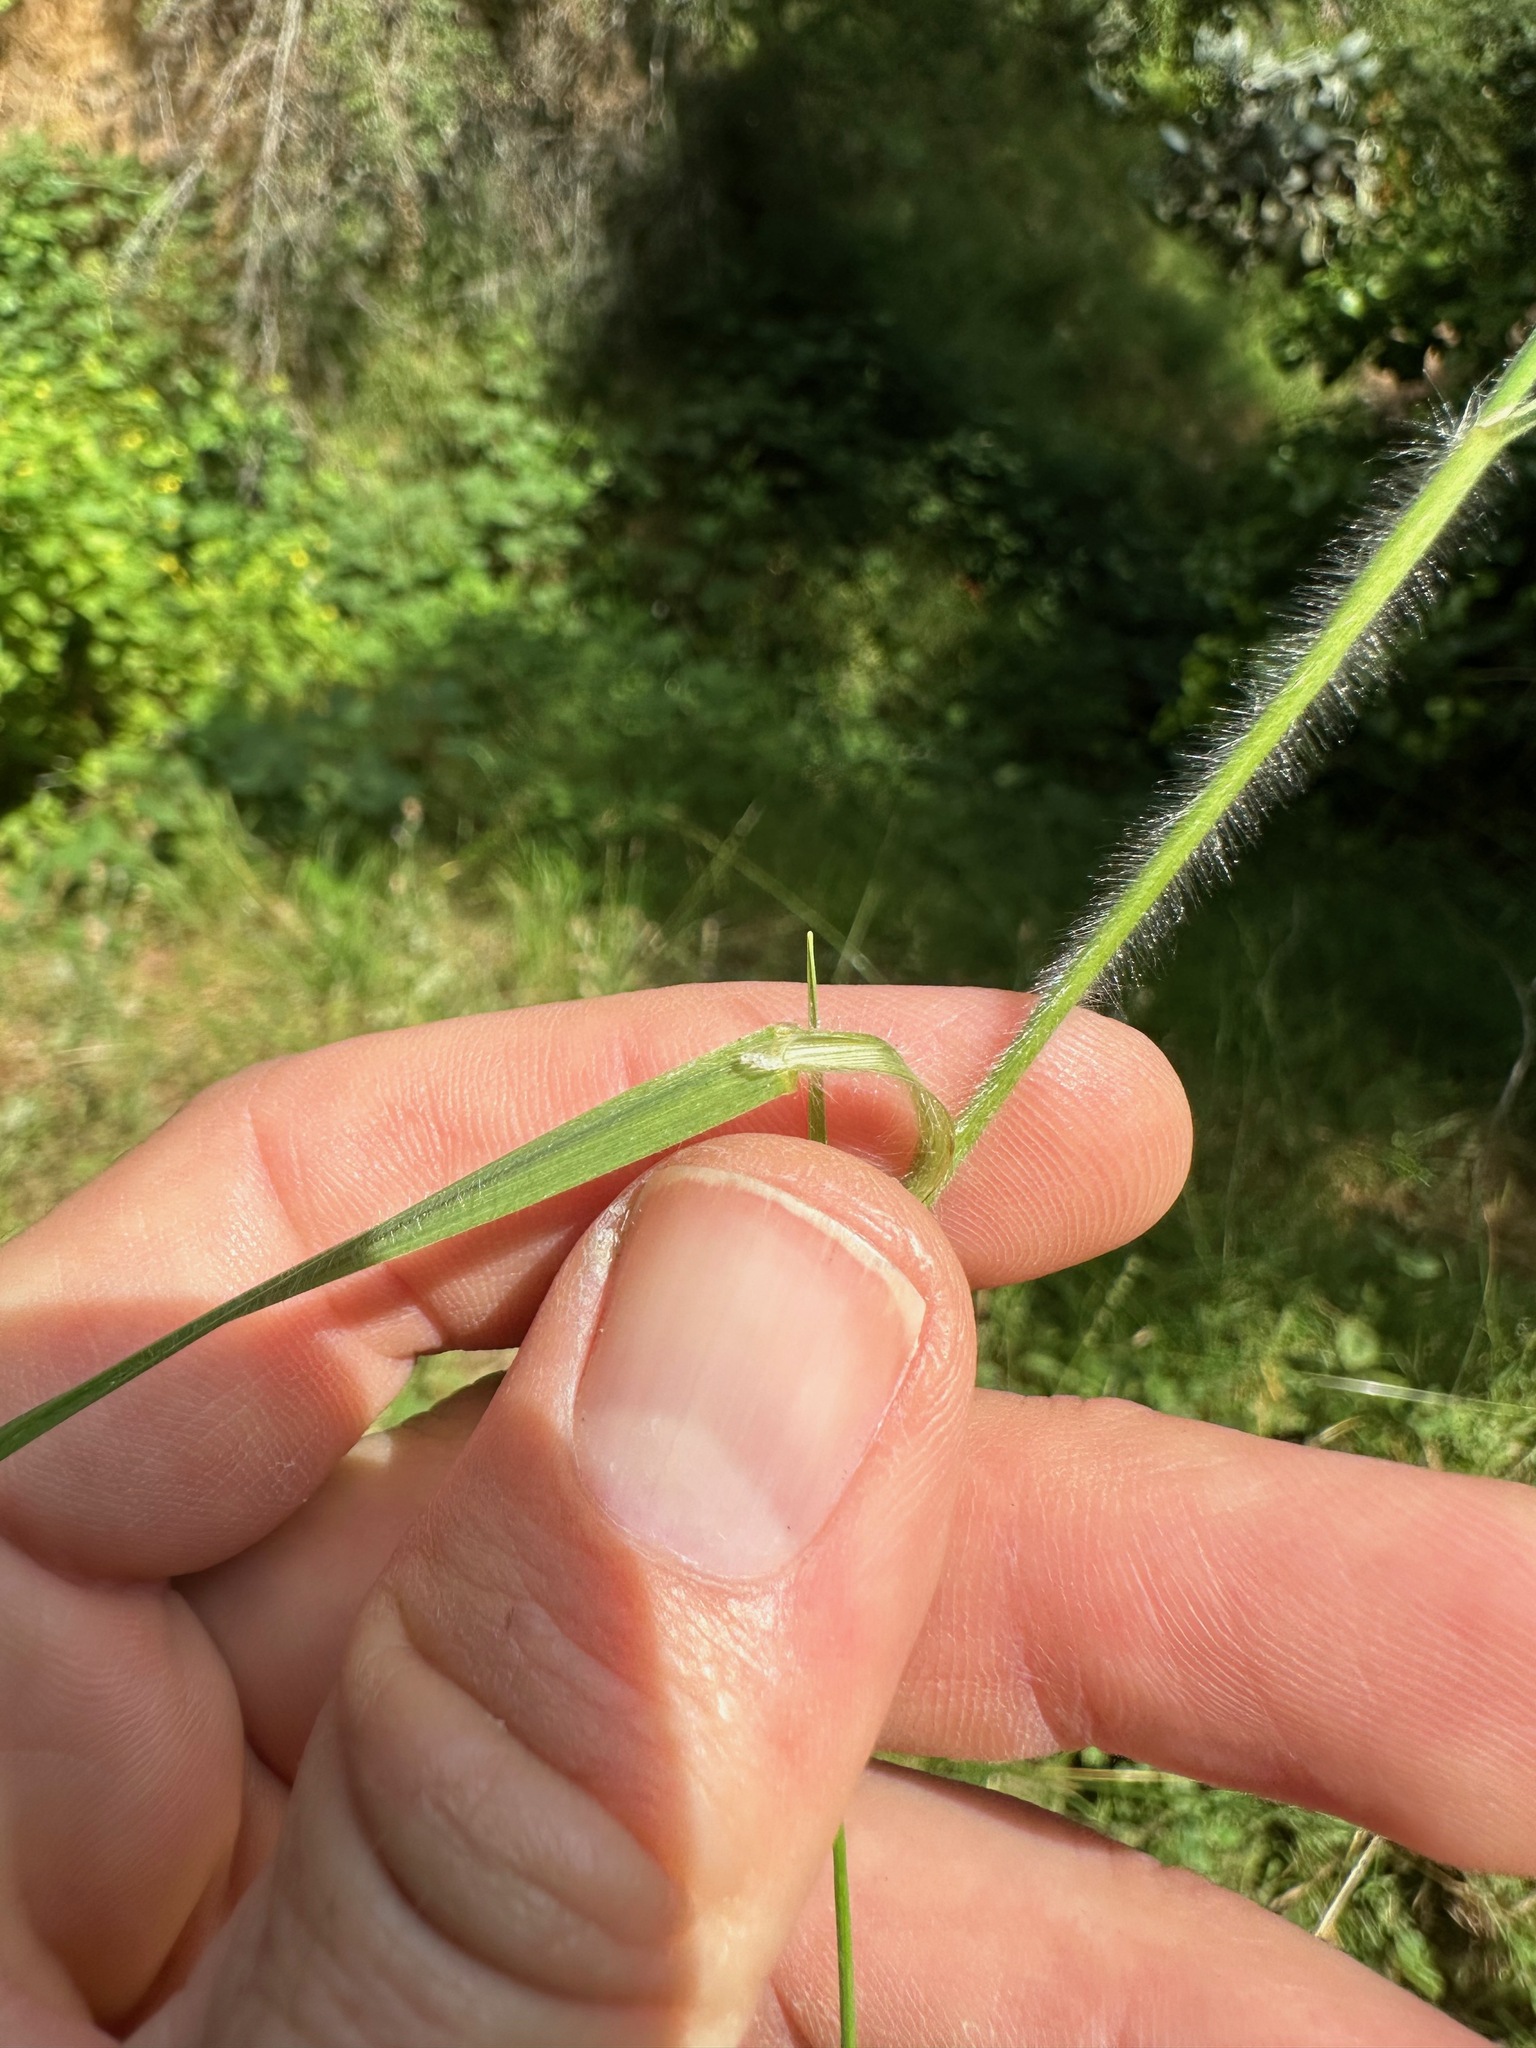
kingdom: Plantae
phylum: Tracheophyta
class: Liliopsida
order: Poales
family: Poaceae
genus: Bromus
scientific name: Bromus carinatus
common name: Mountain brome
